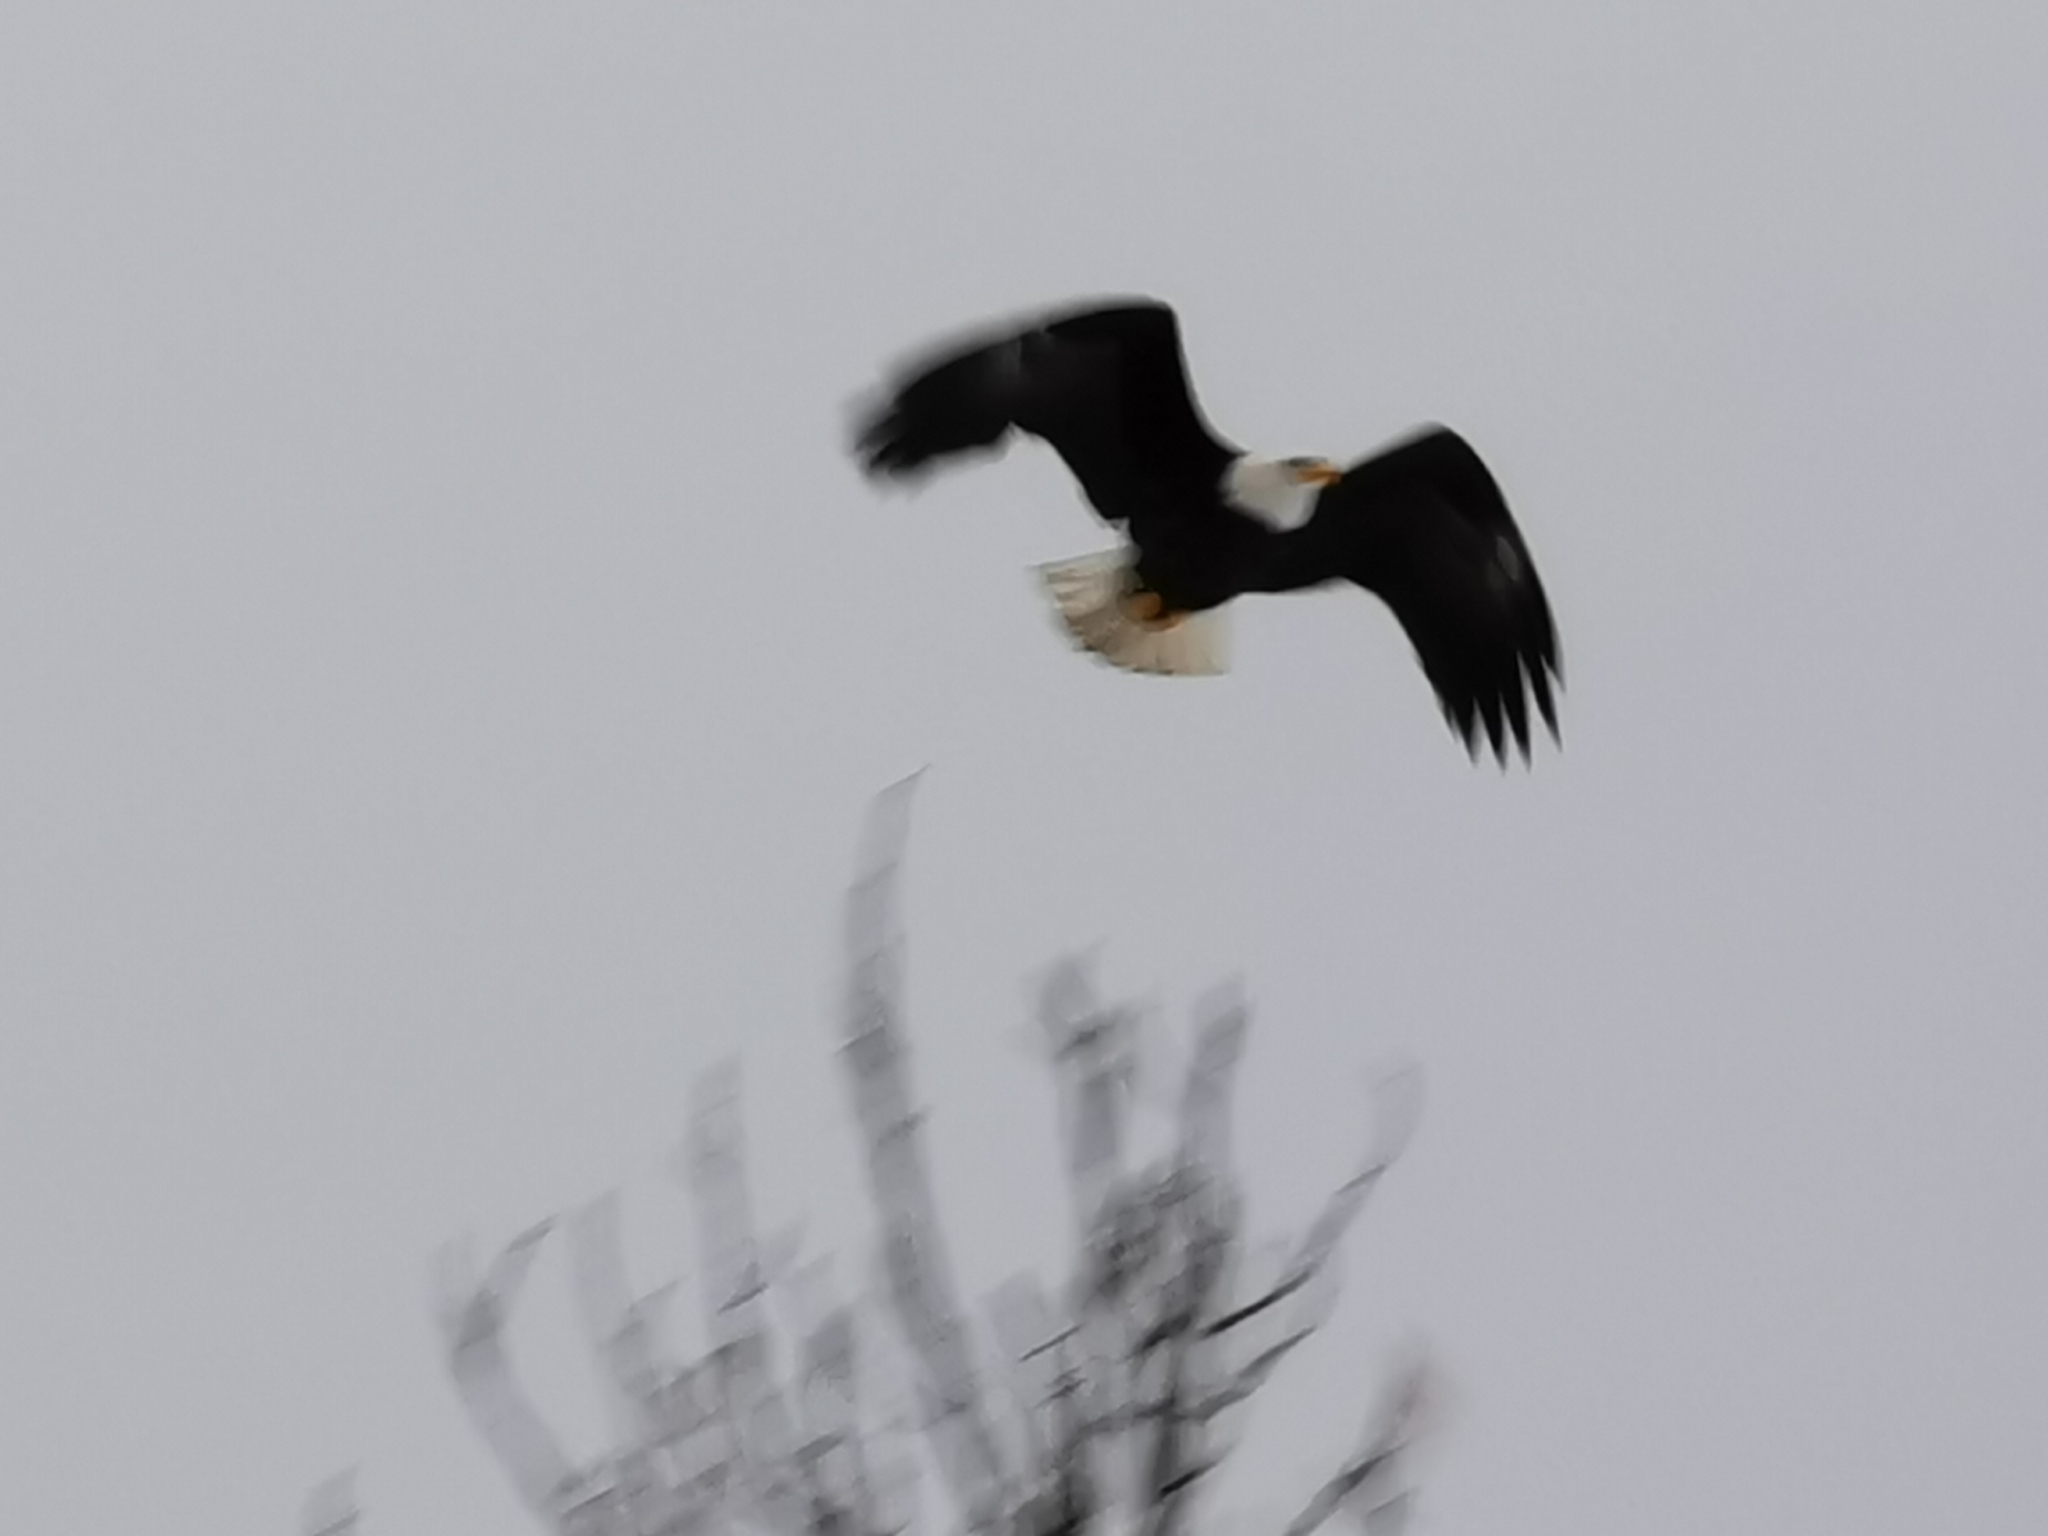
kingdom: Animalia
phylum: Chordata
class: Aves
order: Accipitriformes
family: Accipitridae
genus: Haliaeetus
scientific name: Haliaeetus leucocephalus
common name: Bald eagle
